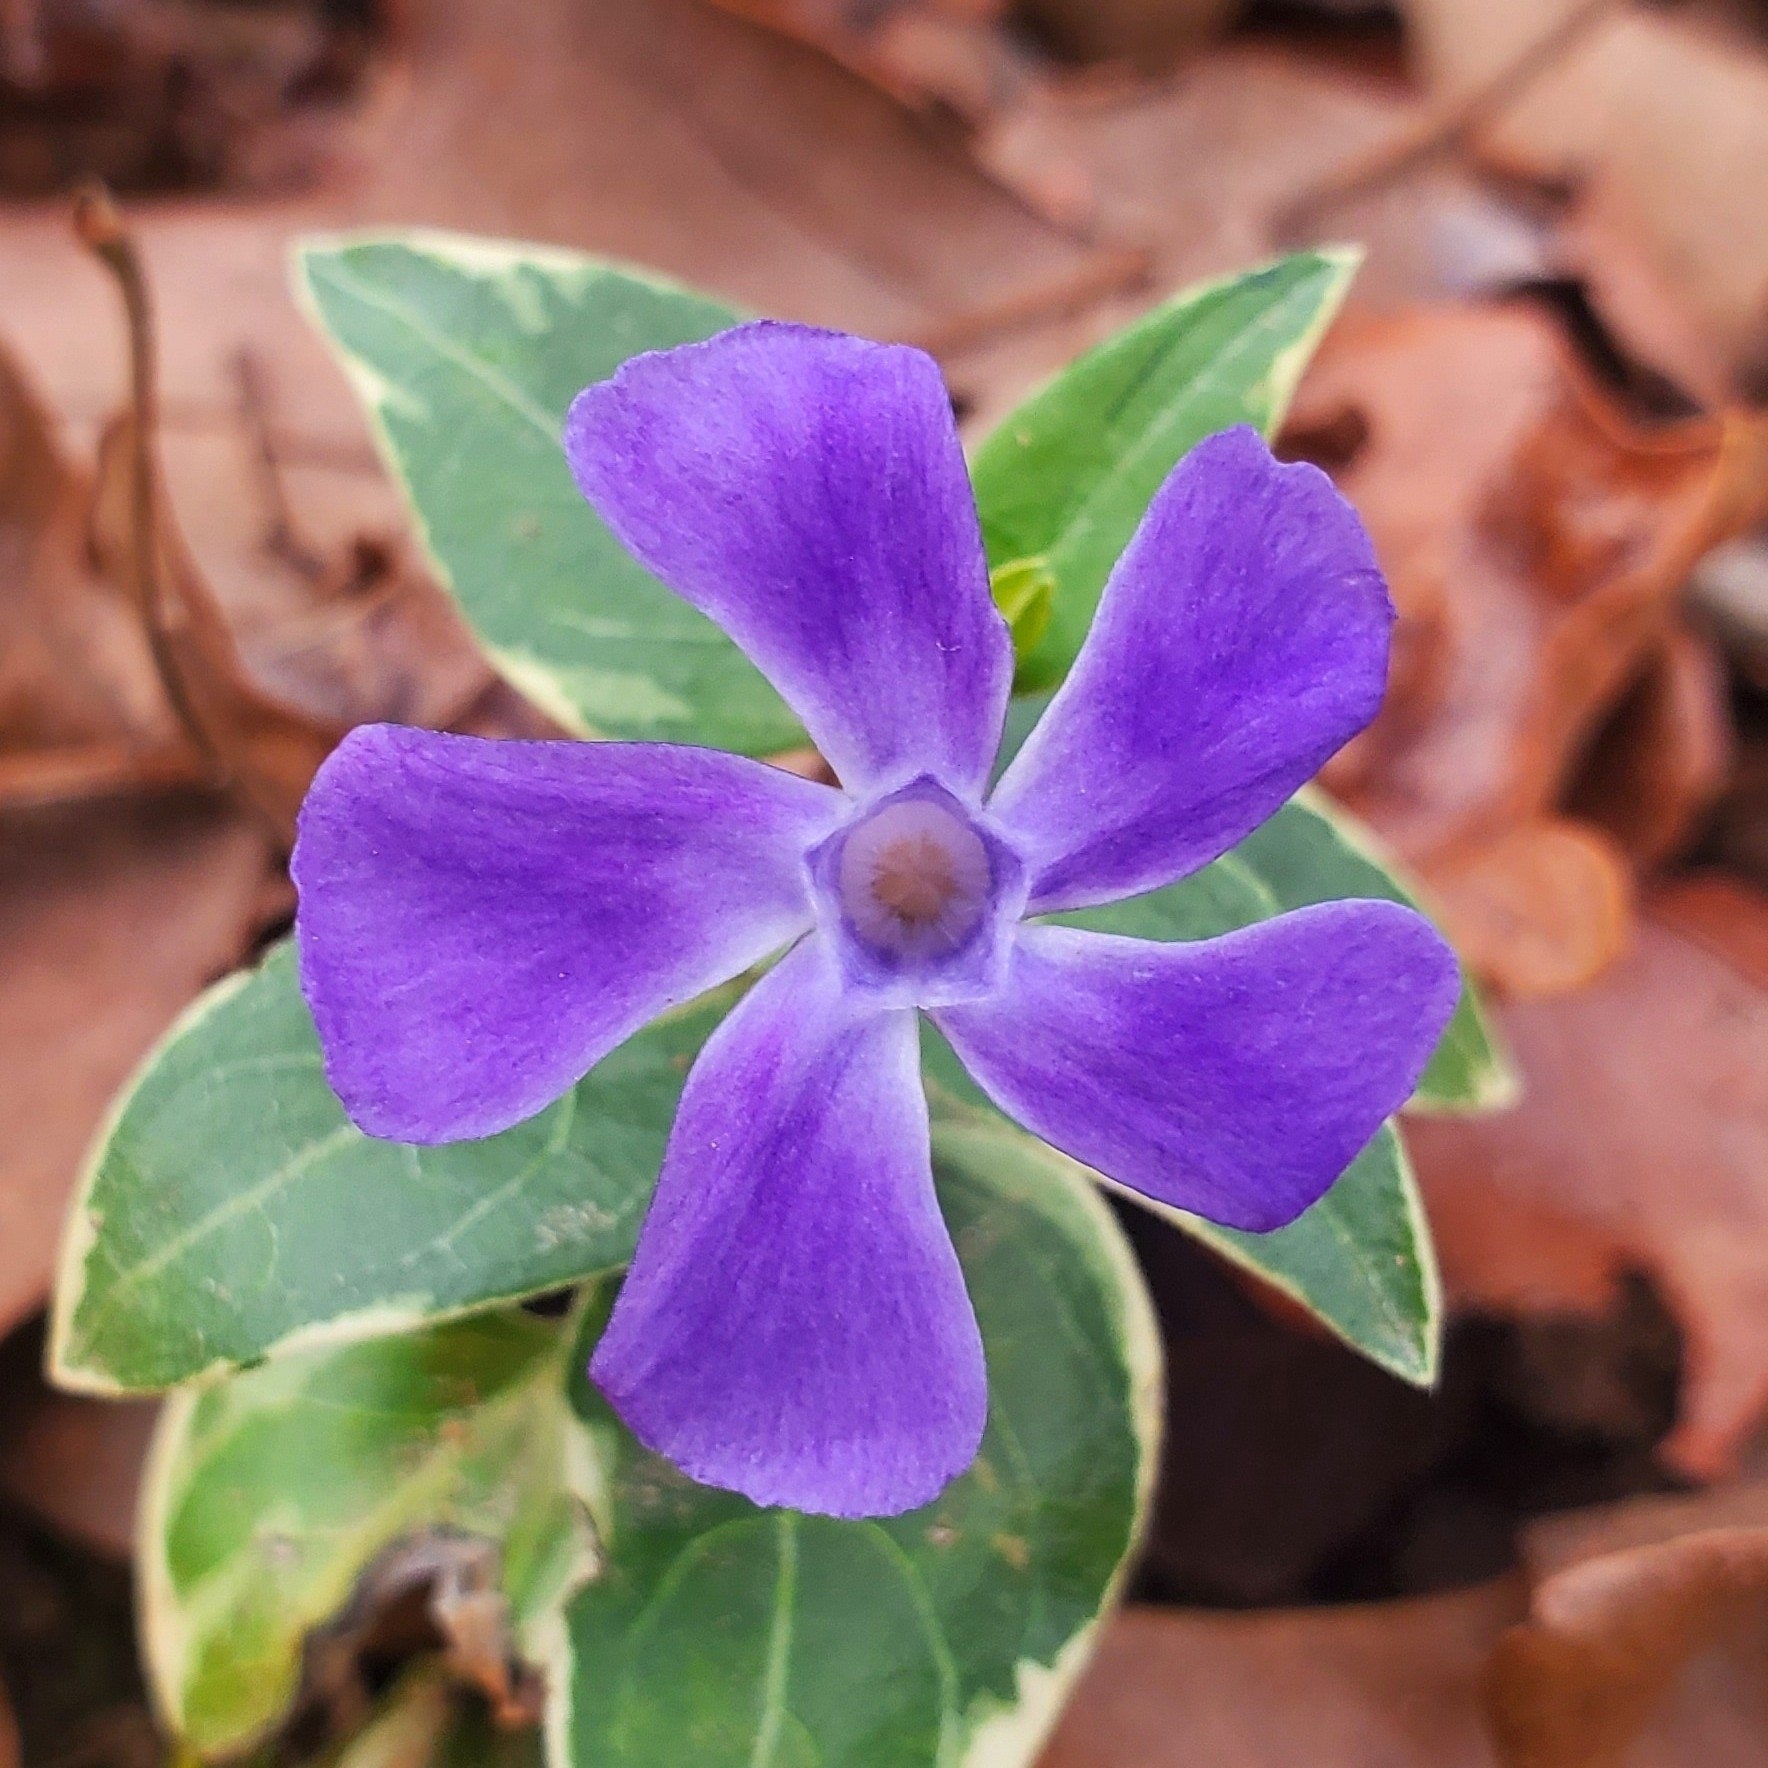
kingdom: Plantae
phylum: Tracheophyta
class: Magnoliopsida
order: Gentianales
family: Apocynaceae
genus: Vinca
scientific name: Vinca major
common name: Greater periwinkle
